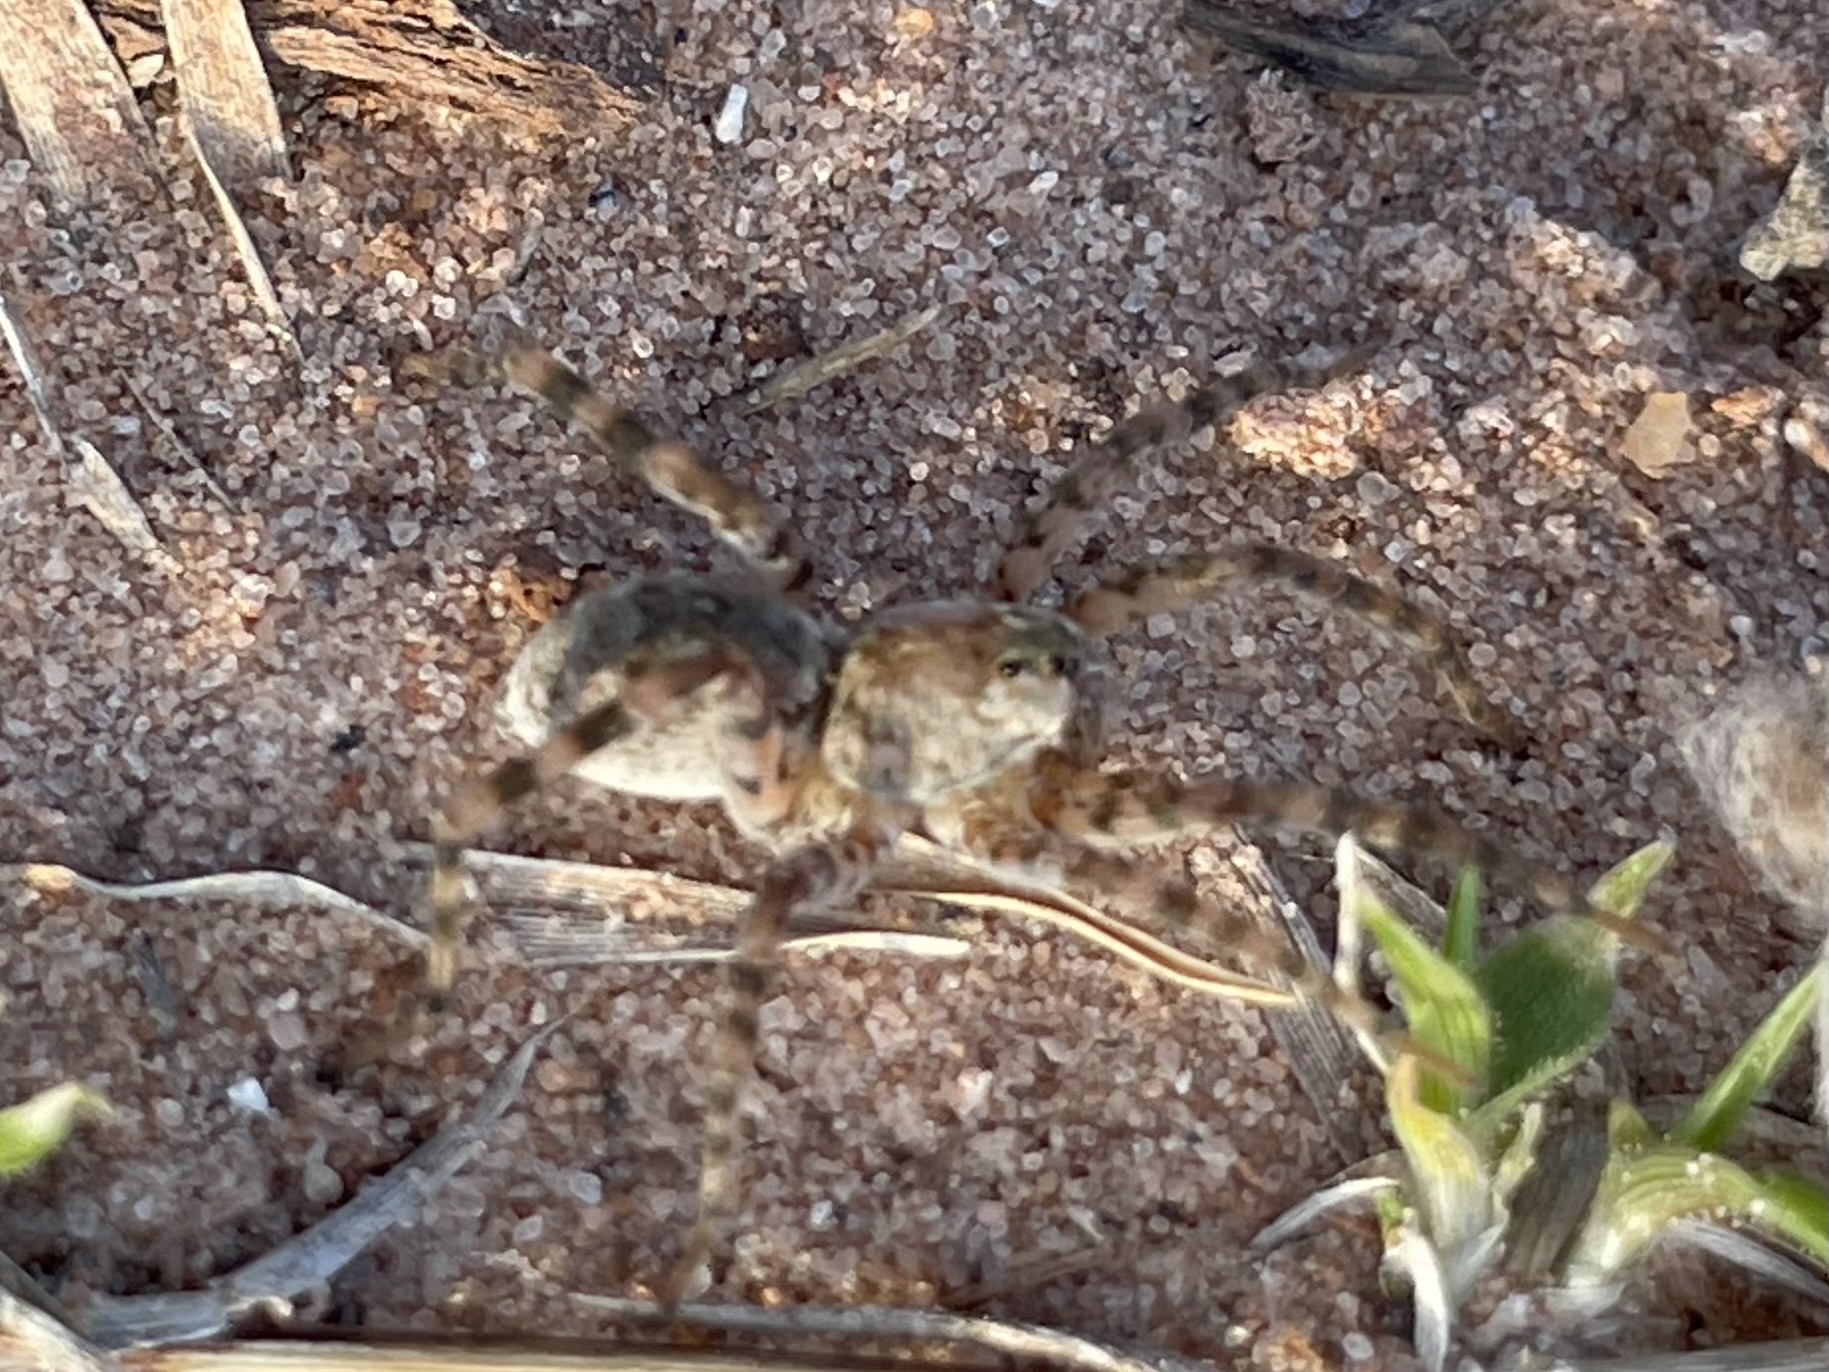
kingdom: Animalia
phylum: Arthropoda
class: Arachnida
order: Araneae
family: Lycosidae
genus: Arctosa
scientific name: Arctosa littoralis
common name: Wolf spiders
